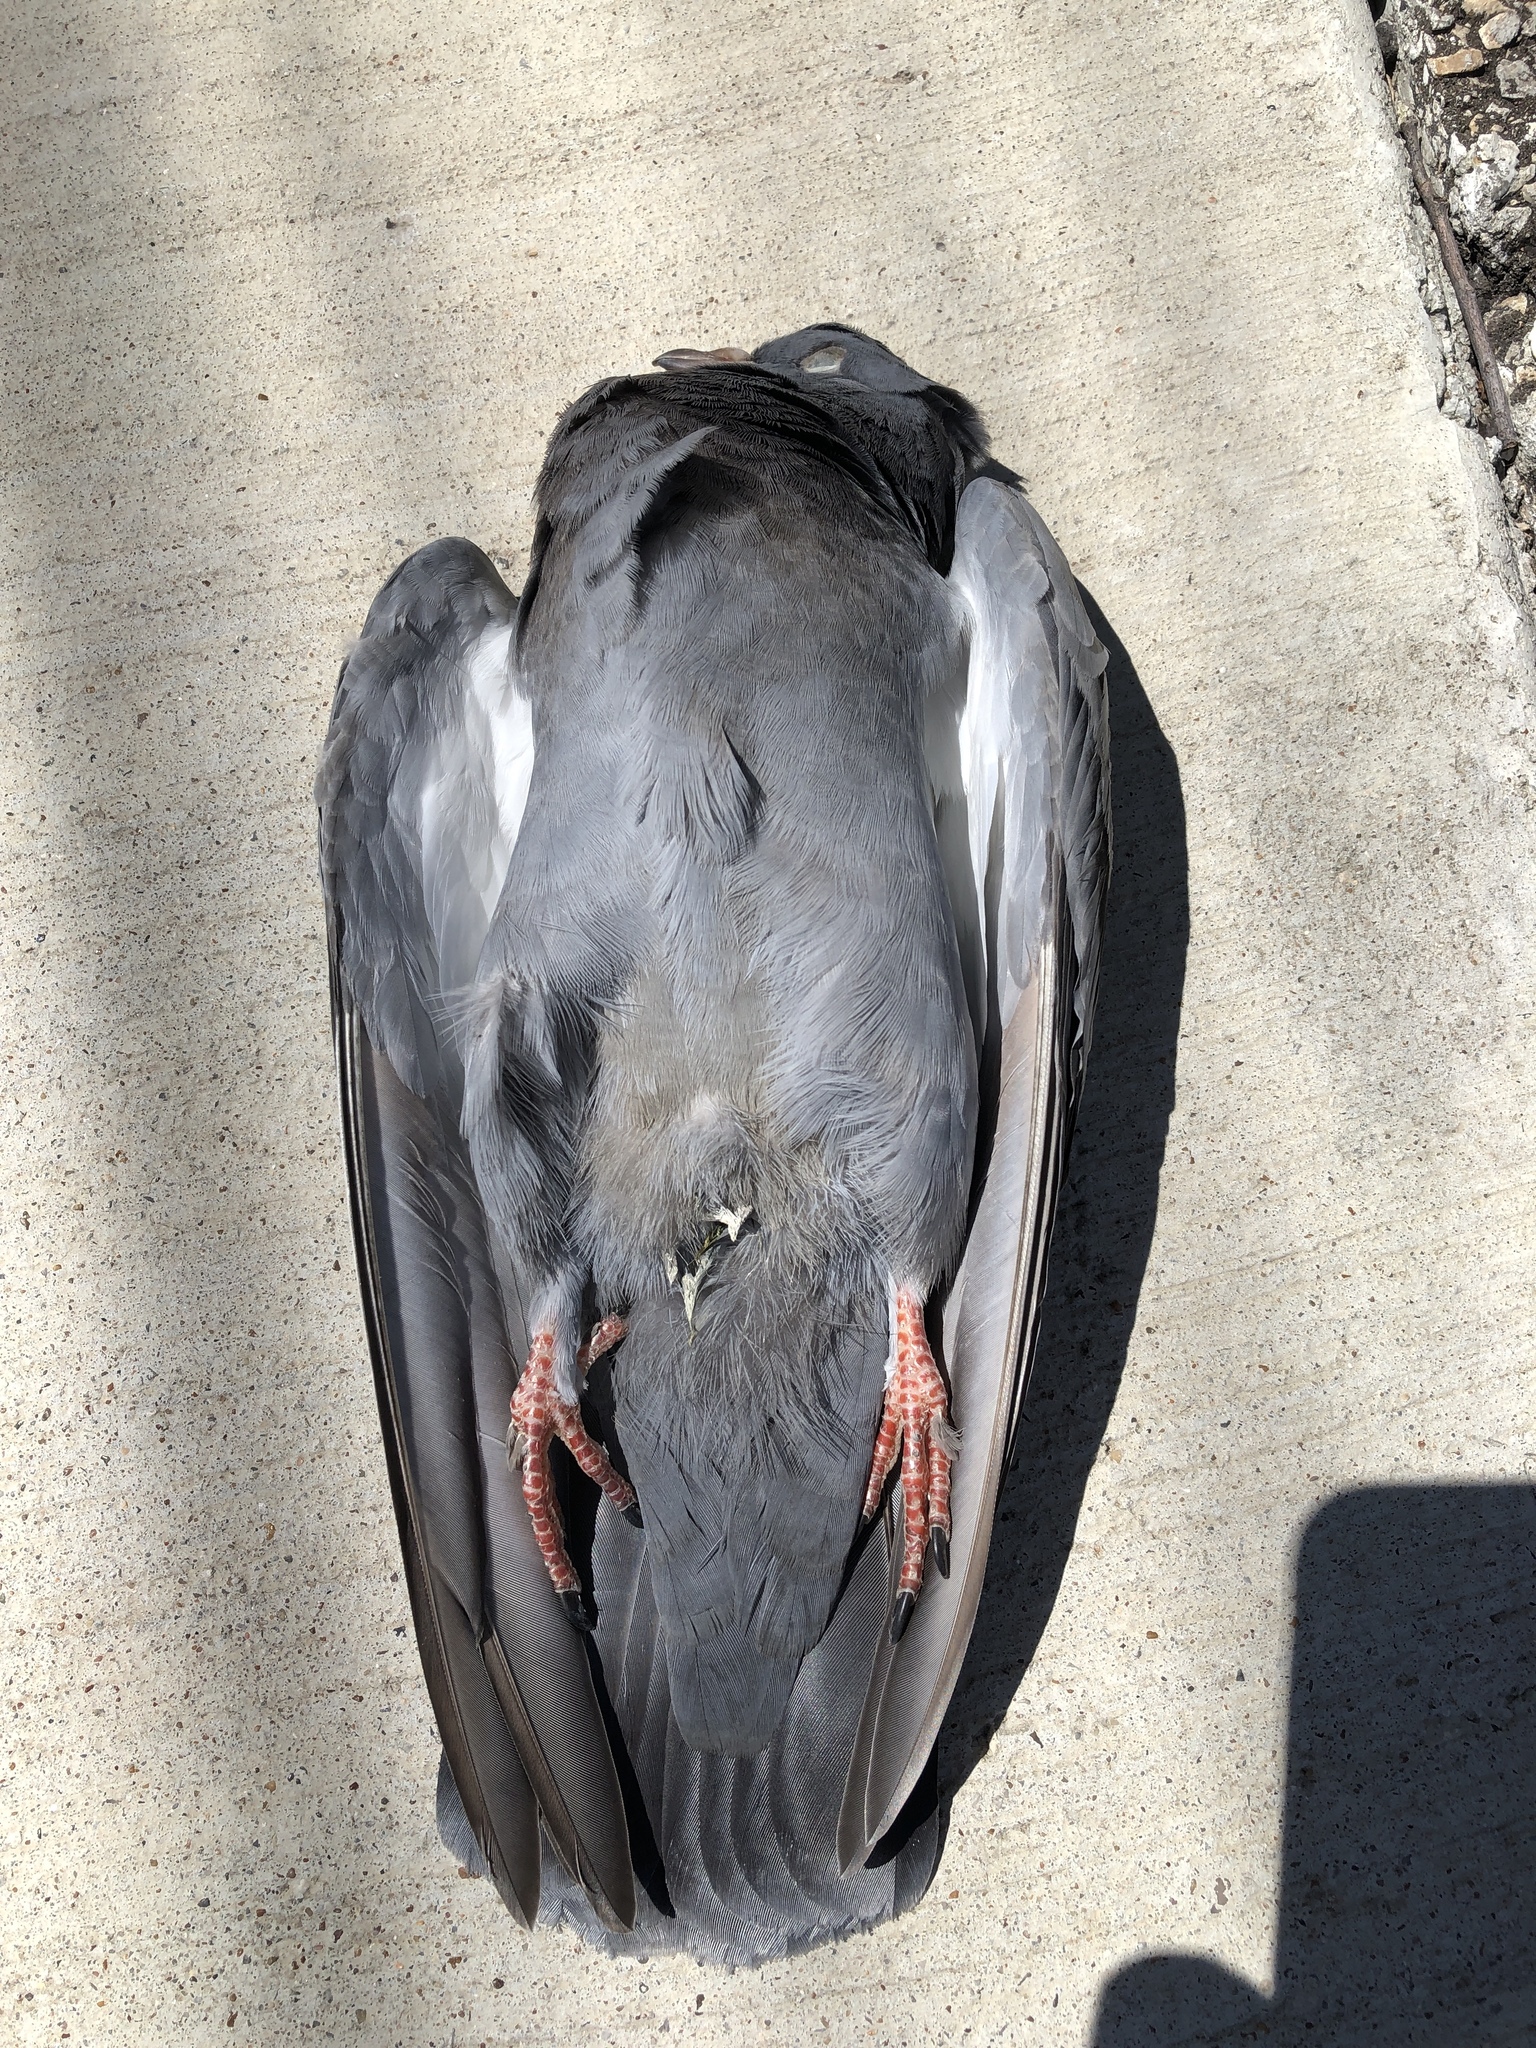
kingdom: Animalia
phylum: Chordata
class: Aves
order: Columbiformes
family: Columbidae
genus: Columba
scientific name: Columba livia
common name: Rock pigeon
